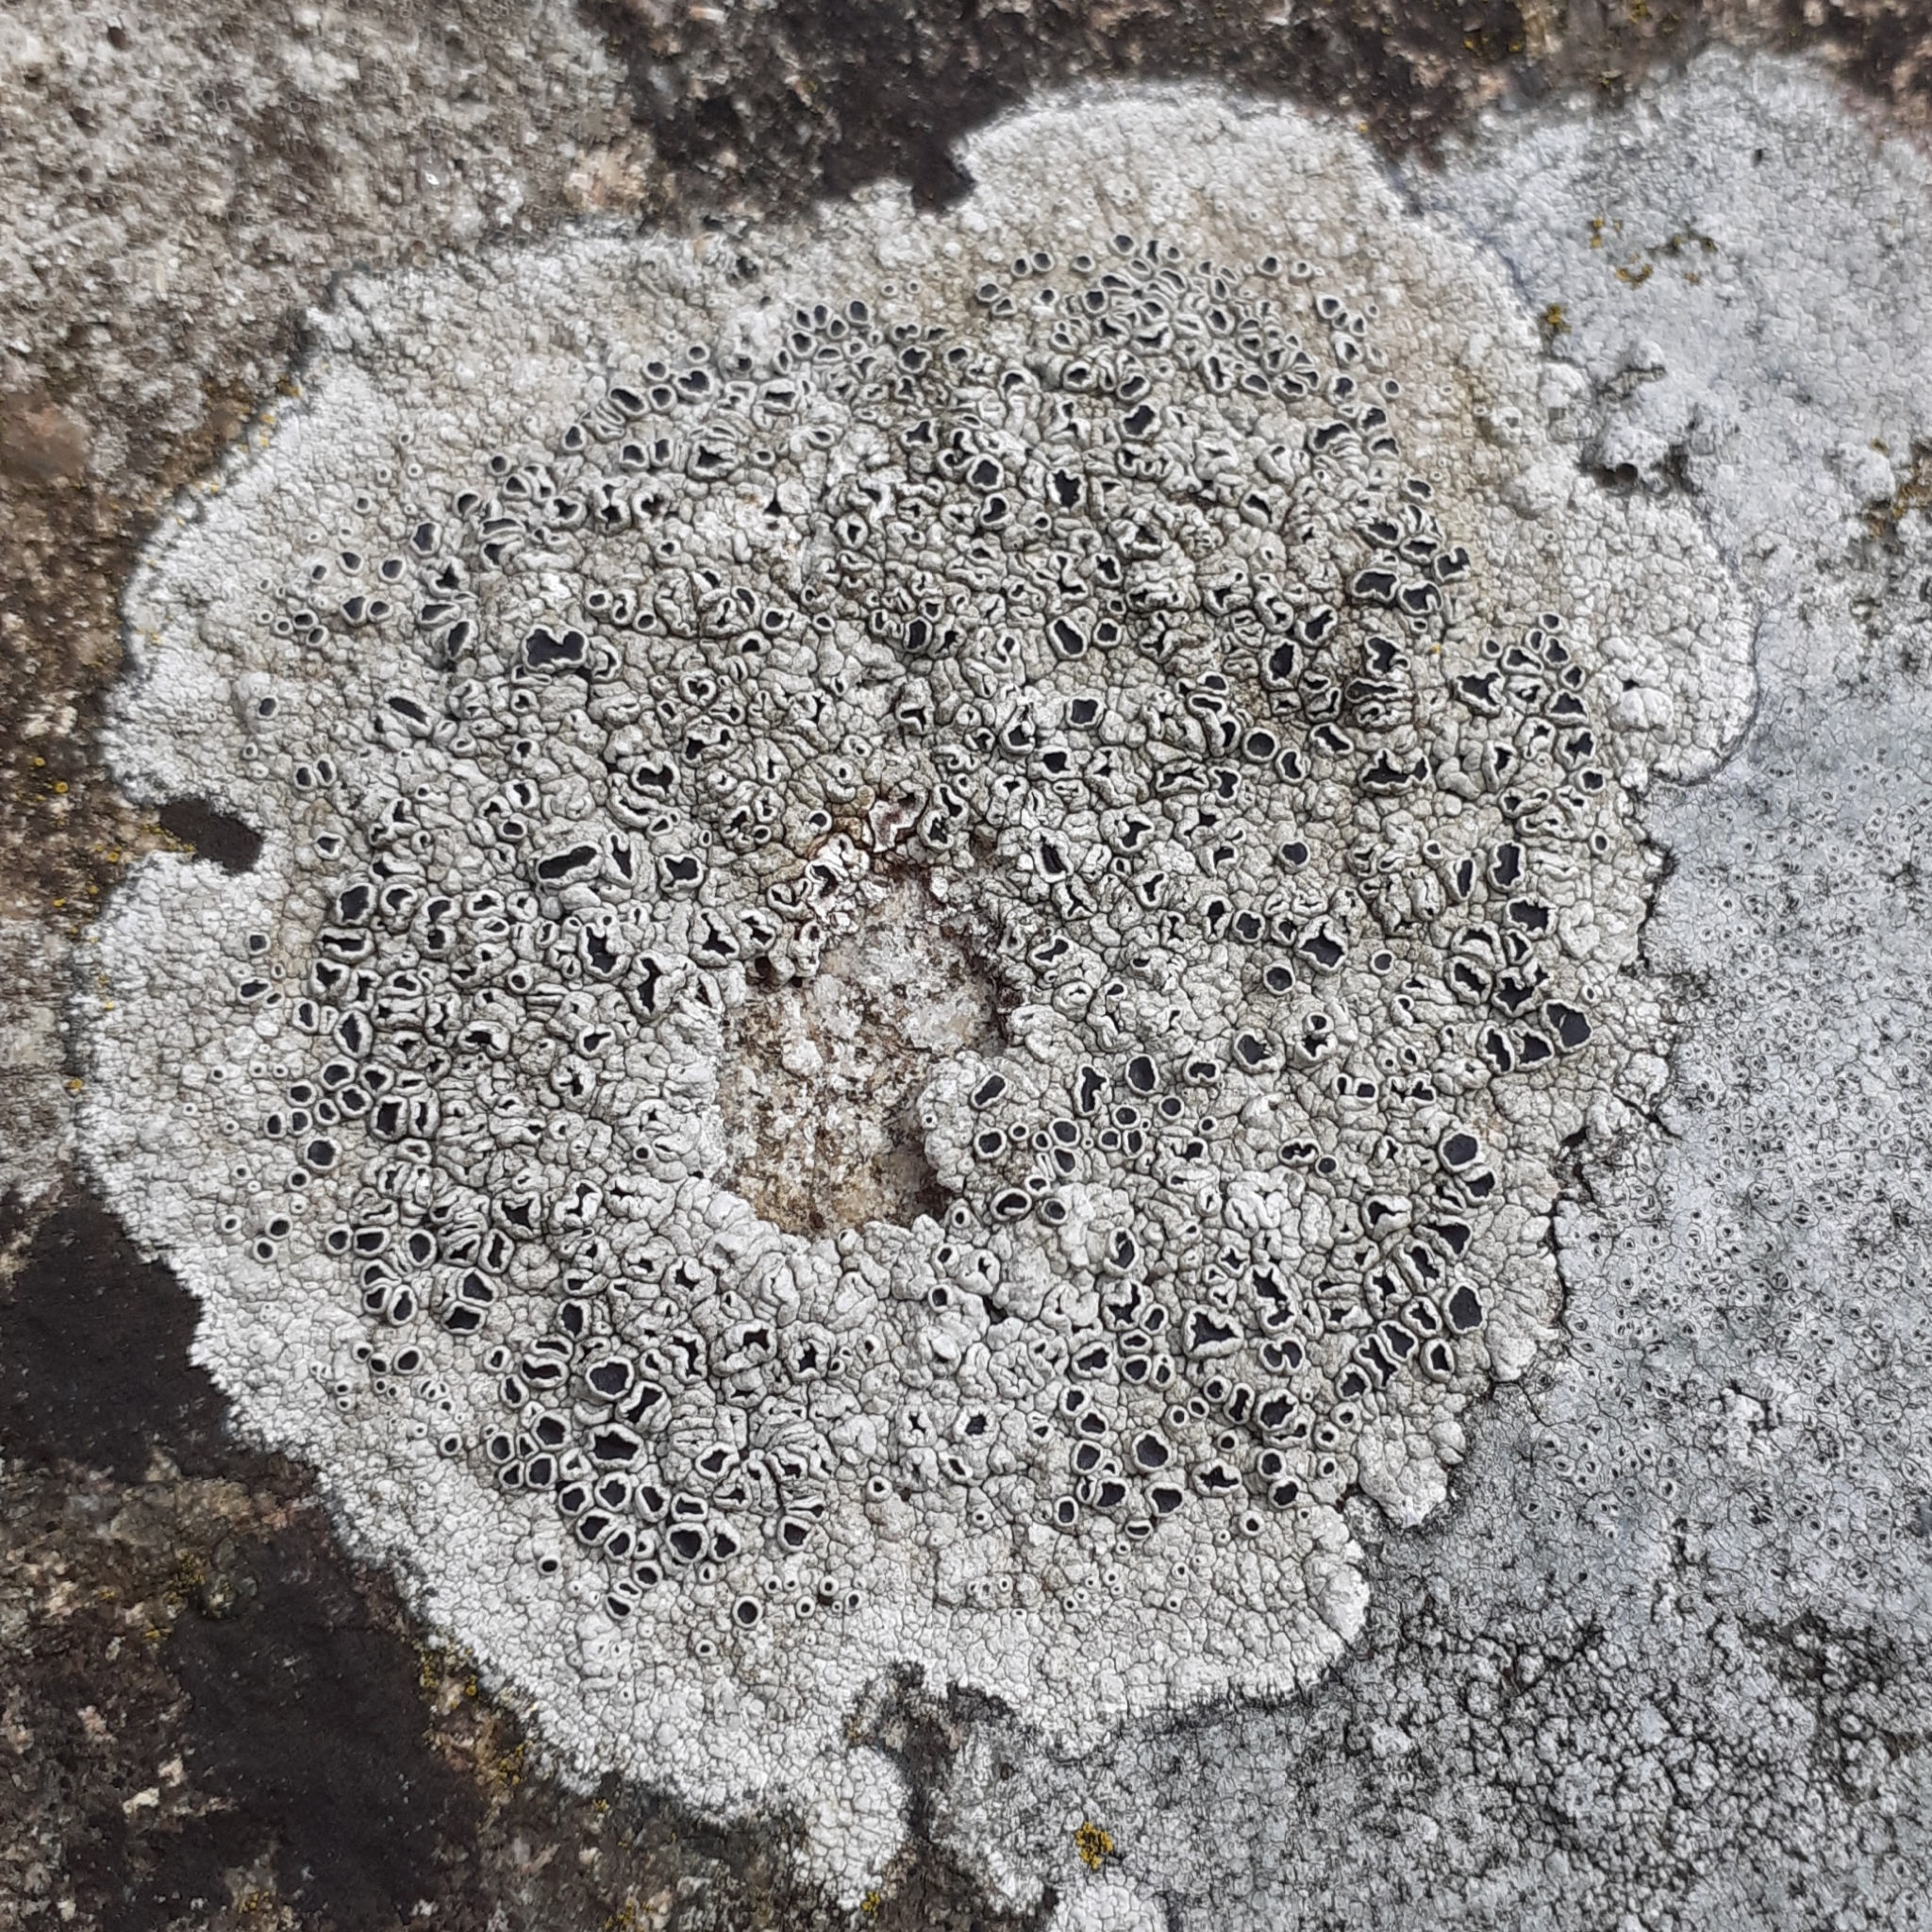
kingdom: Fungi
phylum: Ascomycota
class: Lecanoromycetes
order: Lecanorales
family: Tephromelataceae
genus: Tephromela
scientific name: Tephromela atra
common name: Black shields
